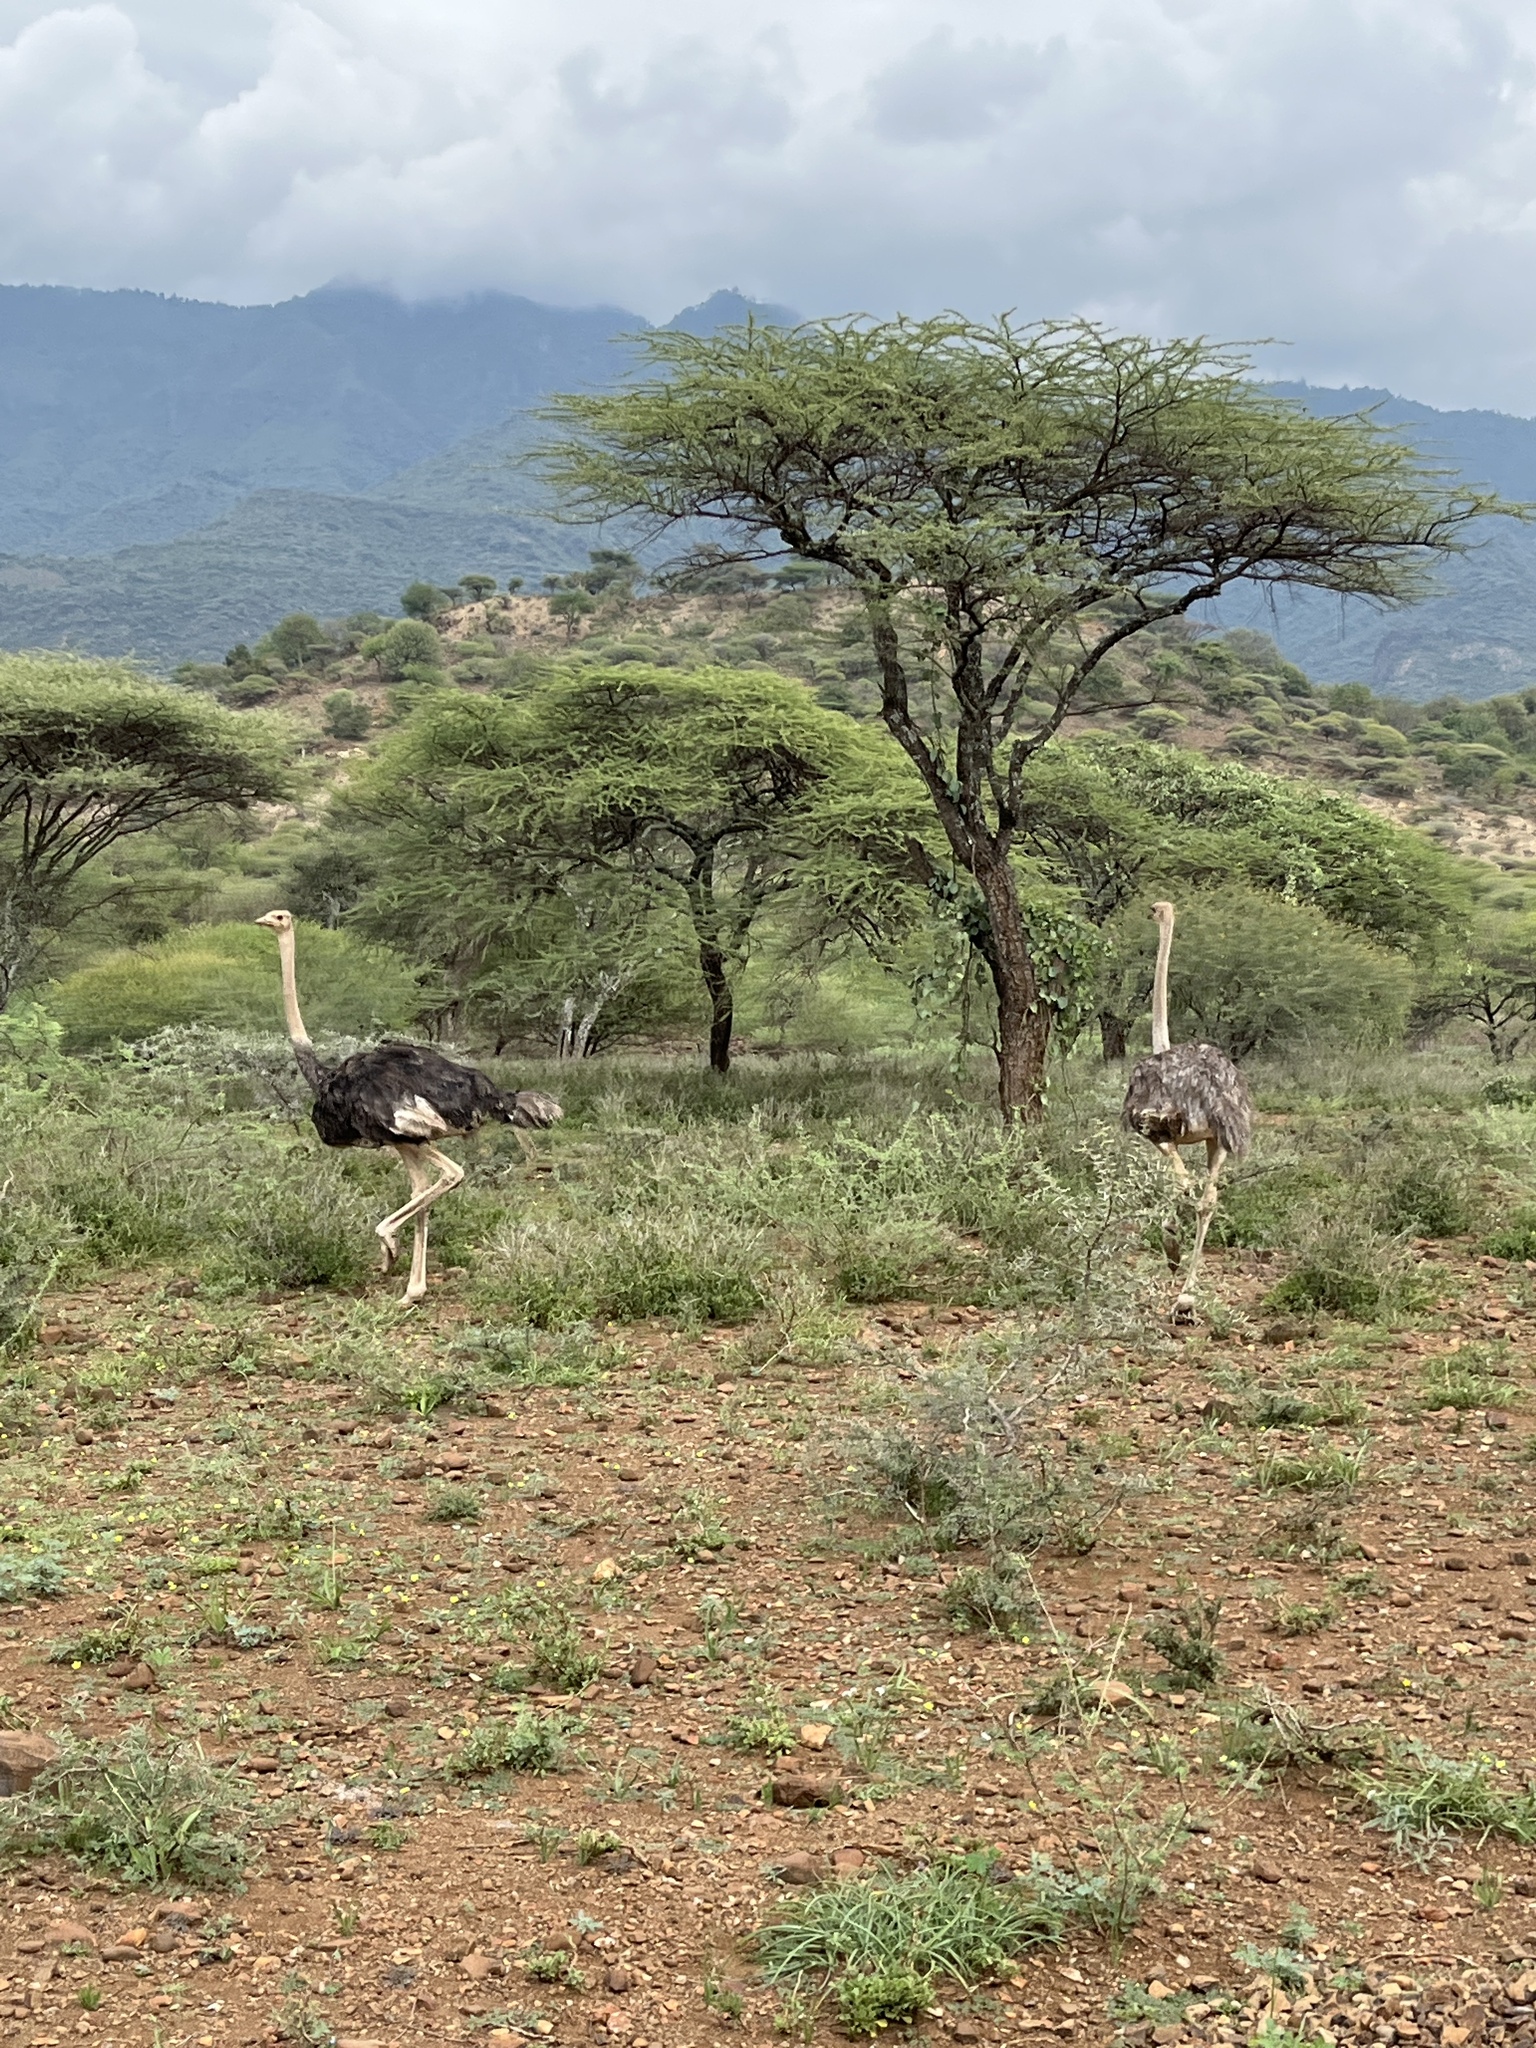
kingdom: Animalia
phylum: Chordata
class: Aves
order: Struthioniformes
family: Struthionidae
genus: Struthio
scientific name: Struthio camelus
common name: Common ostrich
